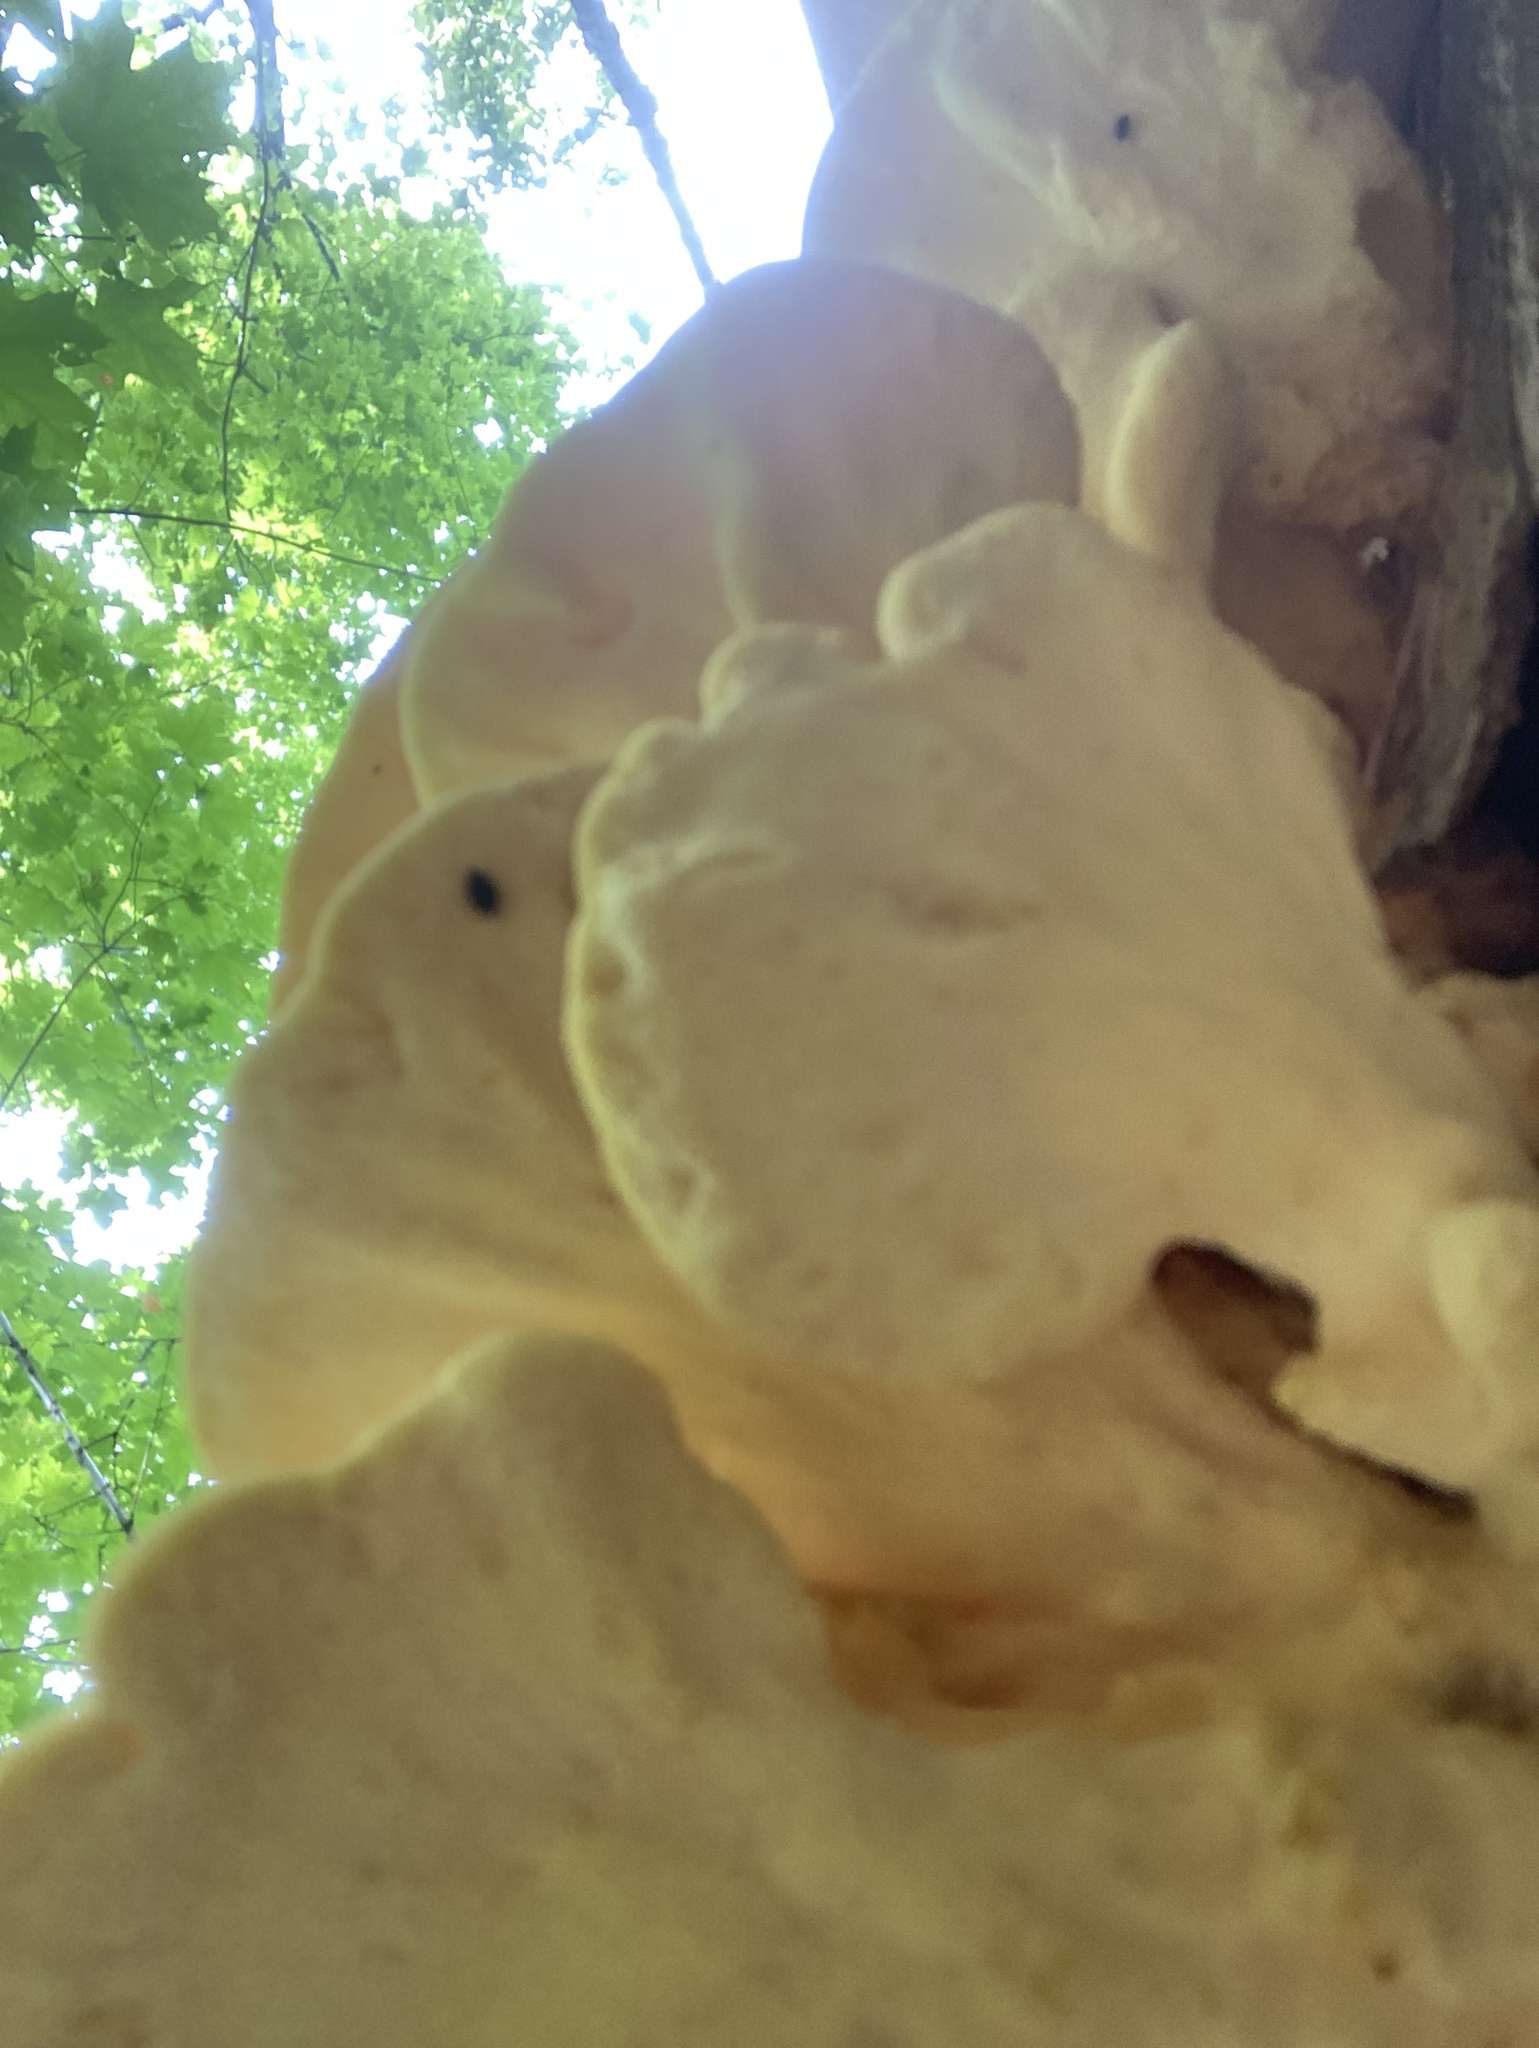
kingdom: Fungi
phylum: Basidiomycota
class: Agaricomycetes
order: Polyporales
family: Laetiporaceae
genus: Laetiporus
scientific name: Laetiporus sulphureus
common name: Chicken of the woods
